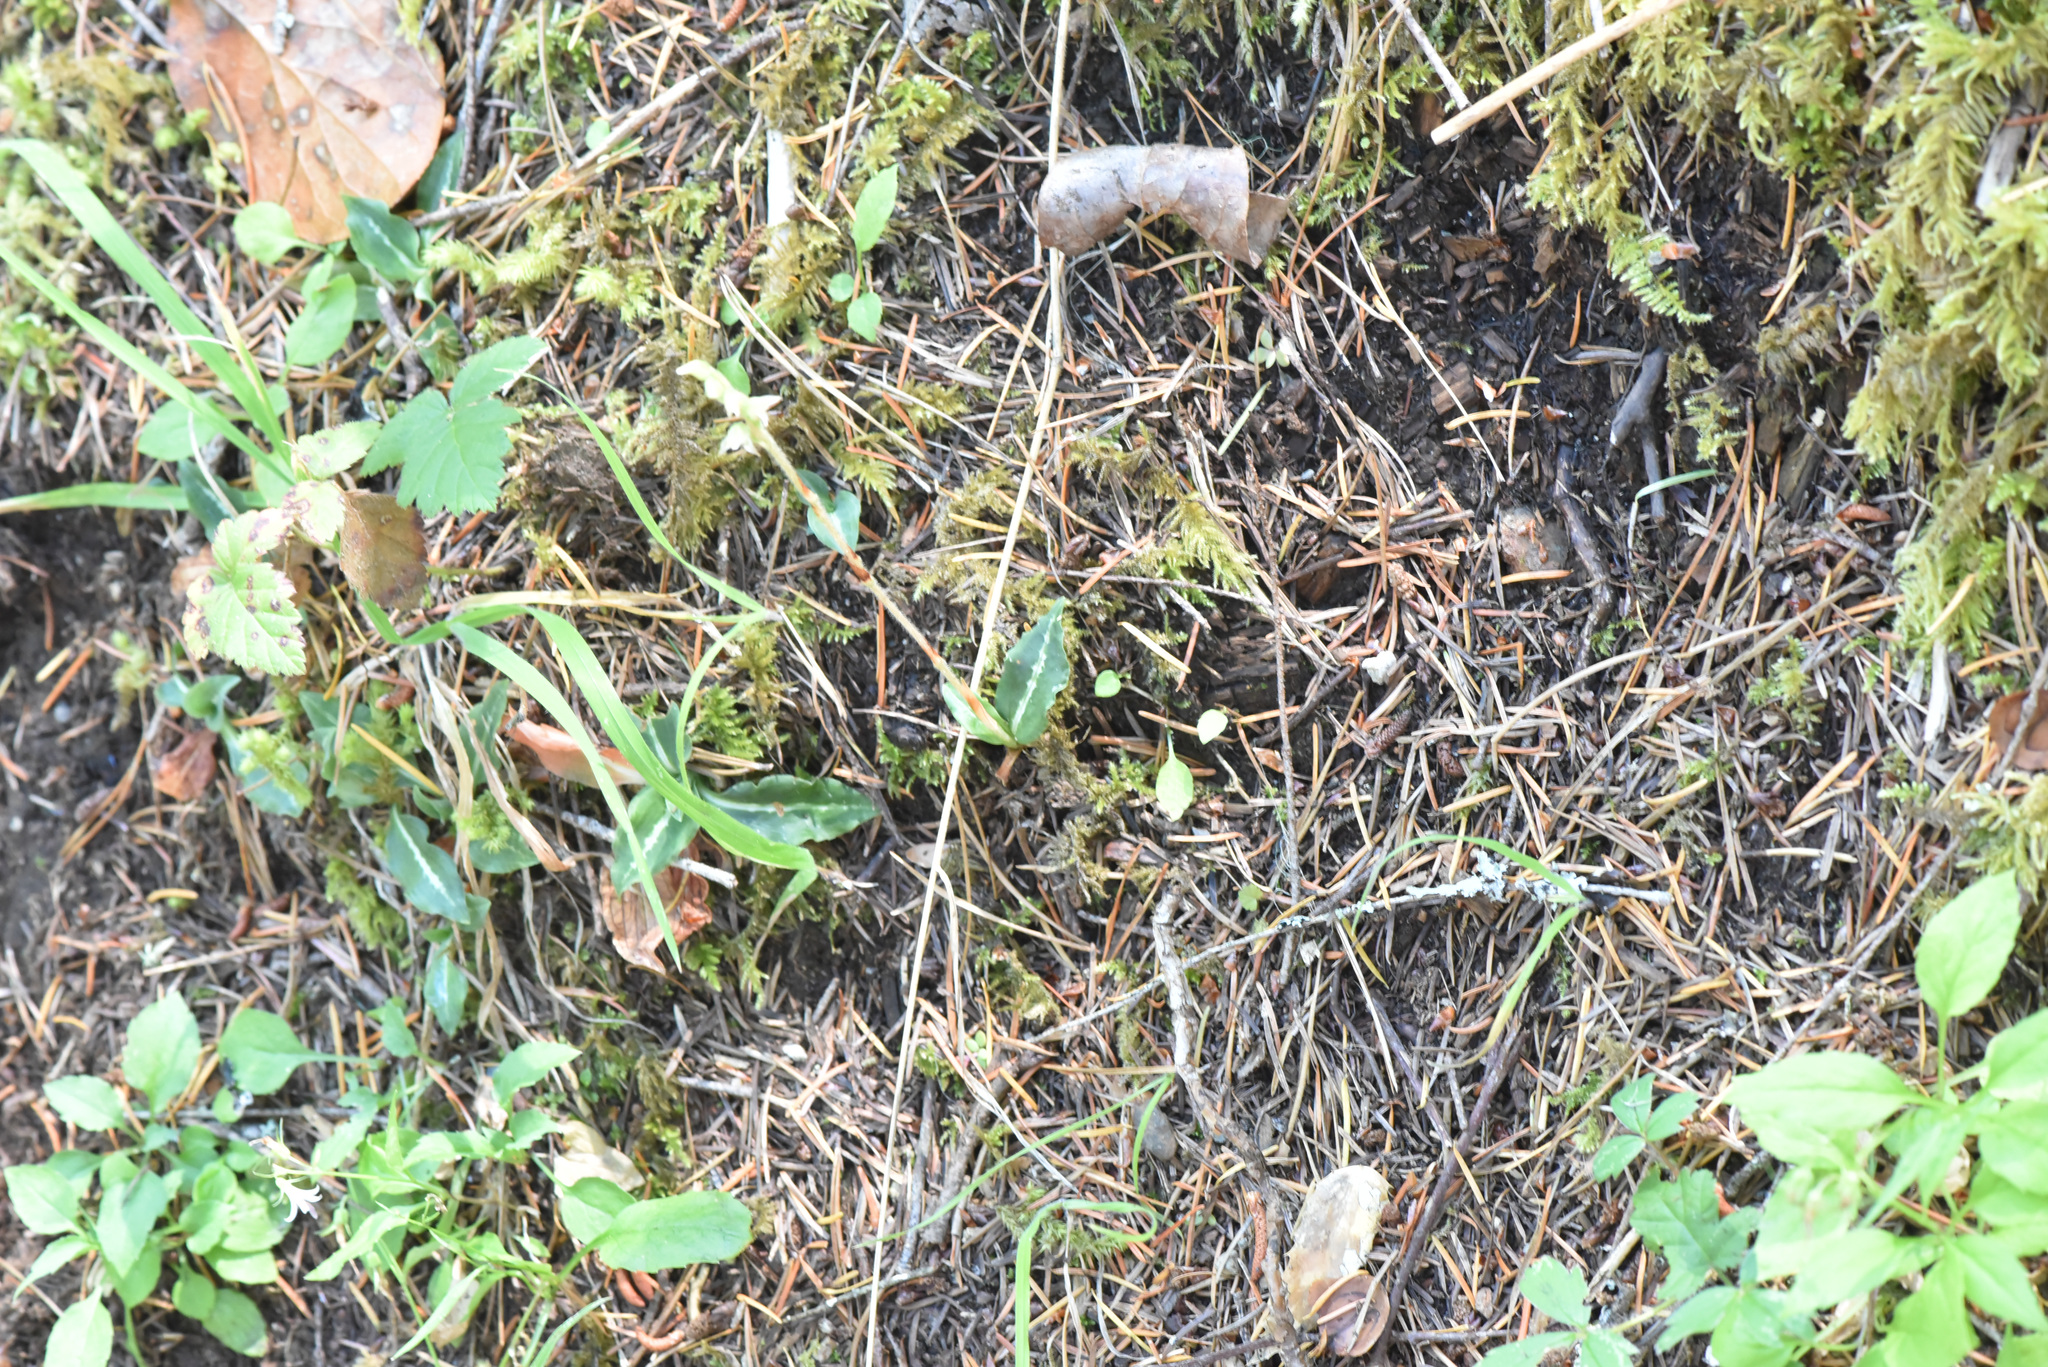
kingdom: Plantae
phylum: Tracheophyta
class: Liliopsida
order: Asparagales
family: Orchidaceae
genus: Goodyera
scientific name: Goodyera oblongifolia
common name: Giant rattlesnake-plantain
